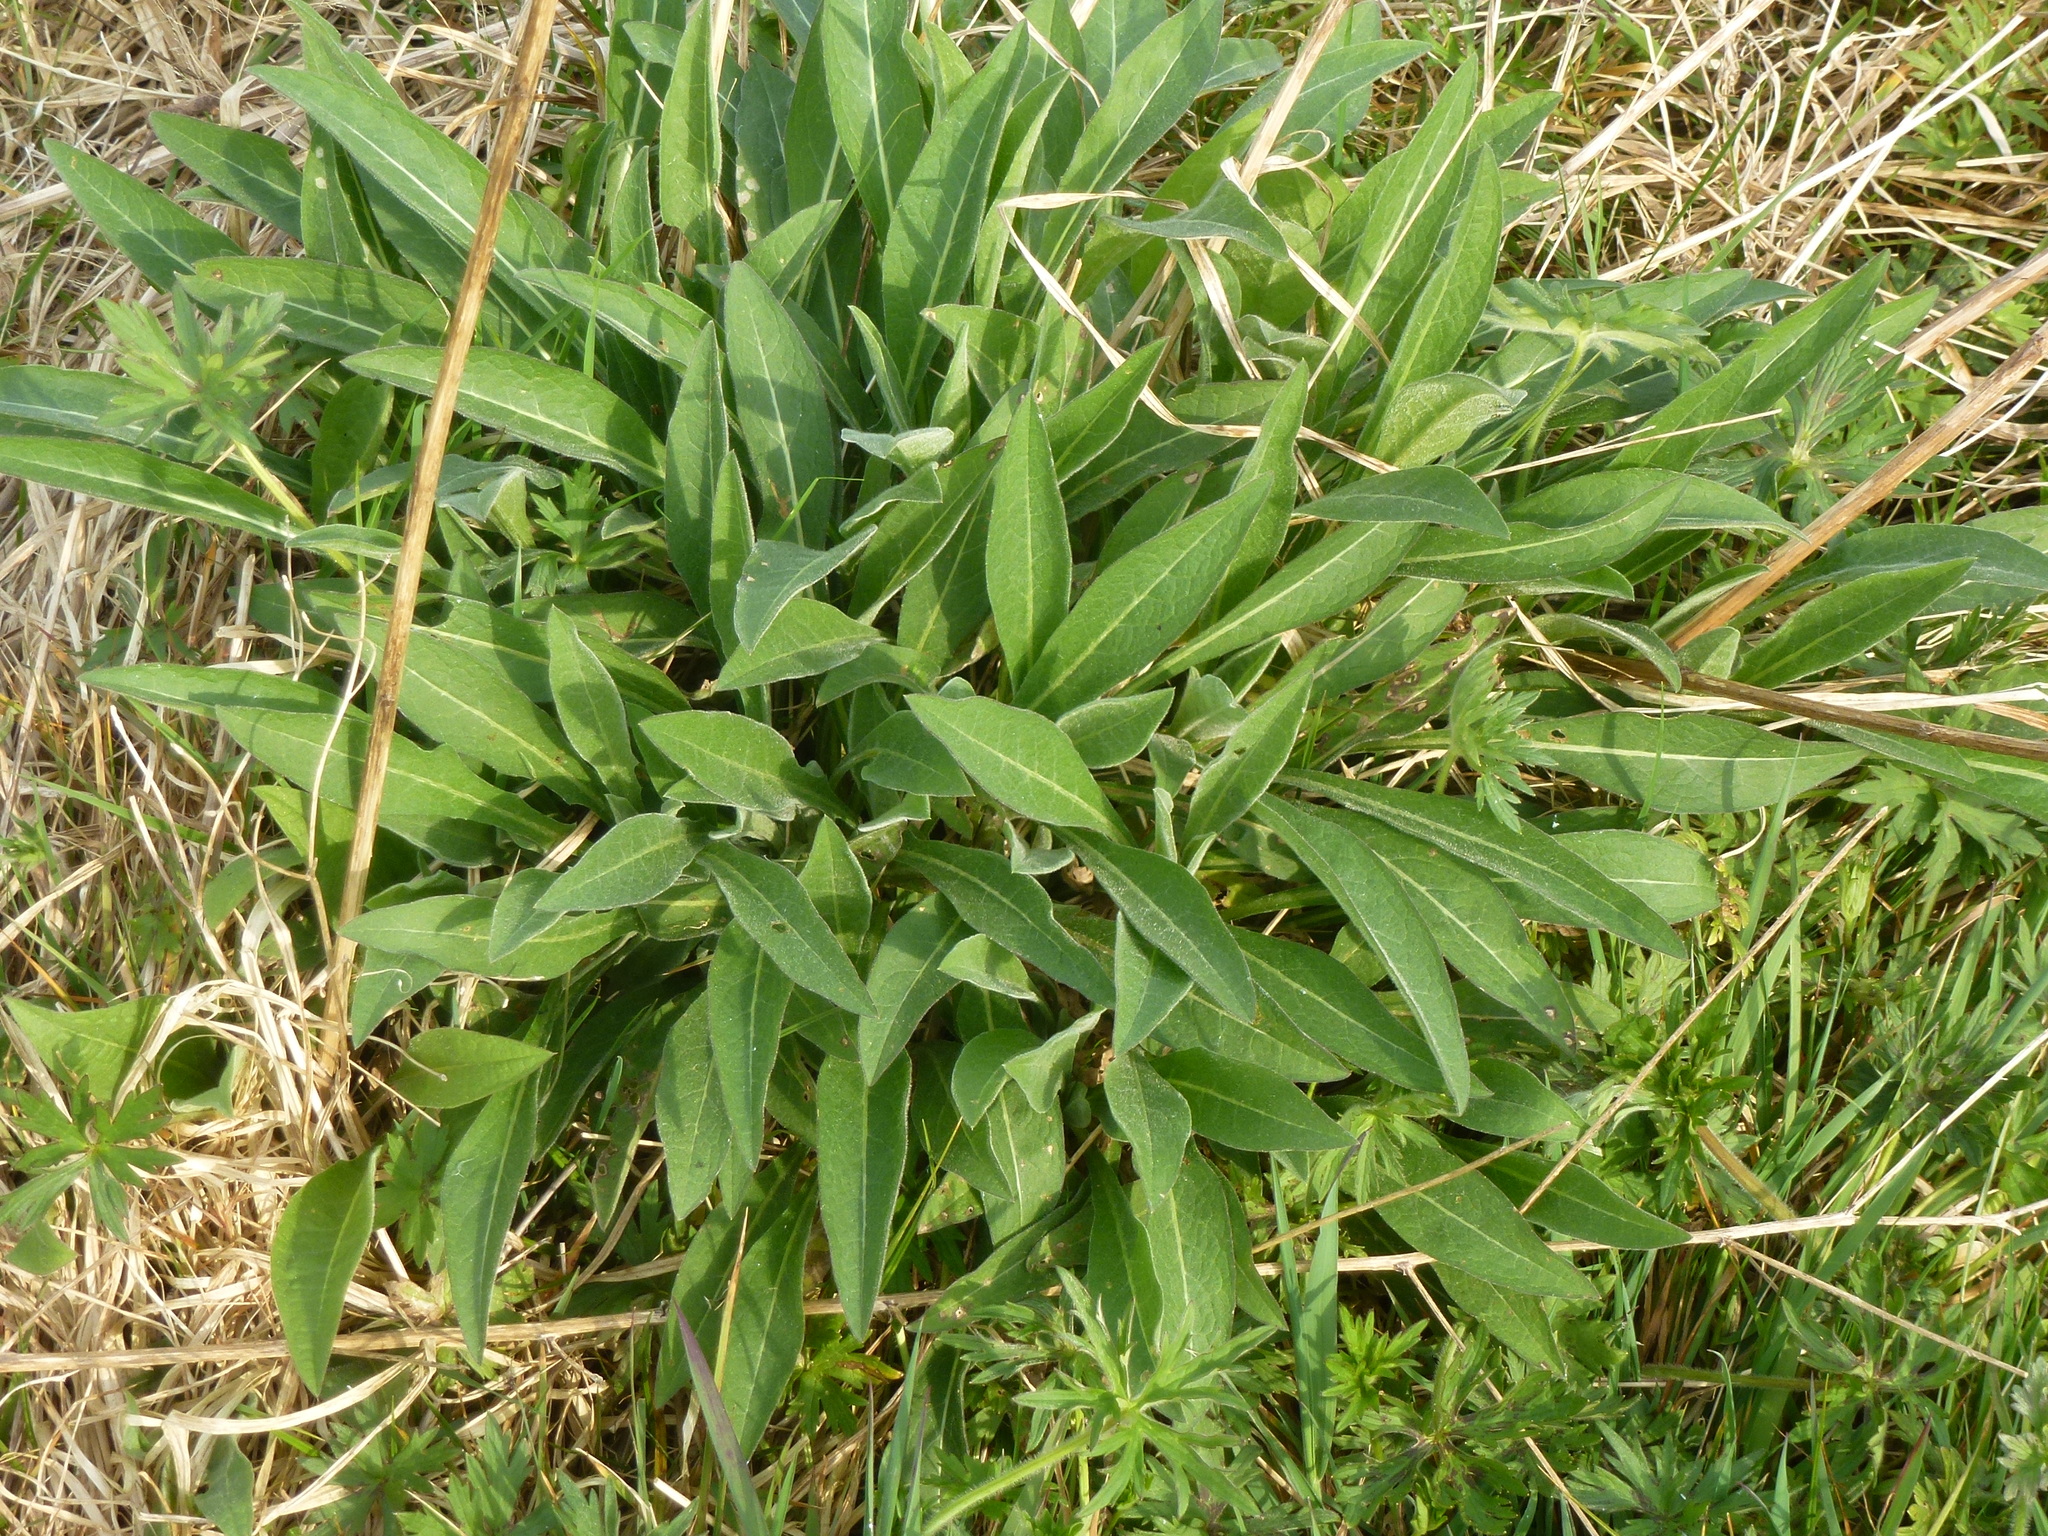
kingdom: Plantae
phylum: Tracheophyta
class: Magnoliopsida
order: Asterales
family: Asteraceae
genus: Centaurea
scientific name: Centaurea nigra
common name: Lesser knapweed
